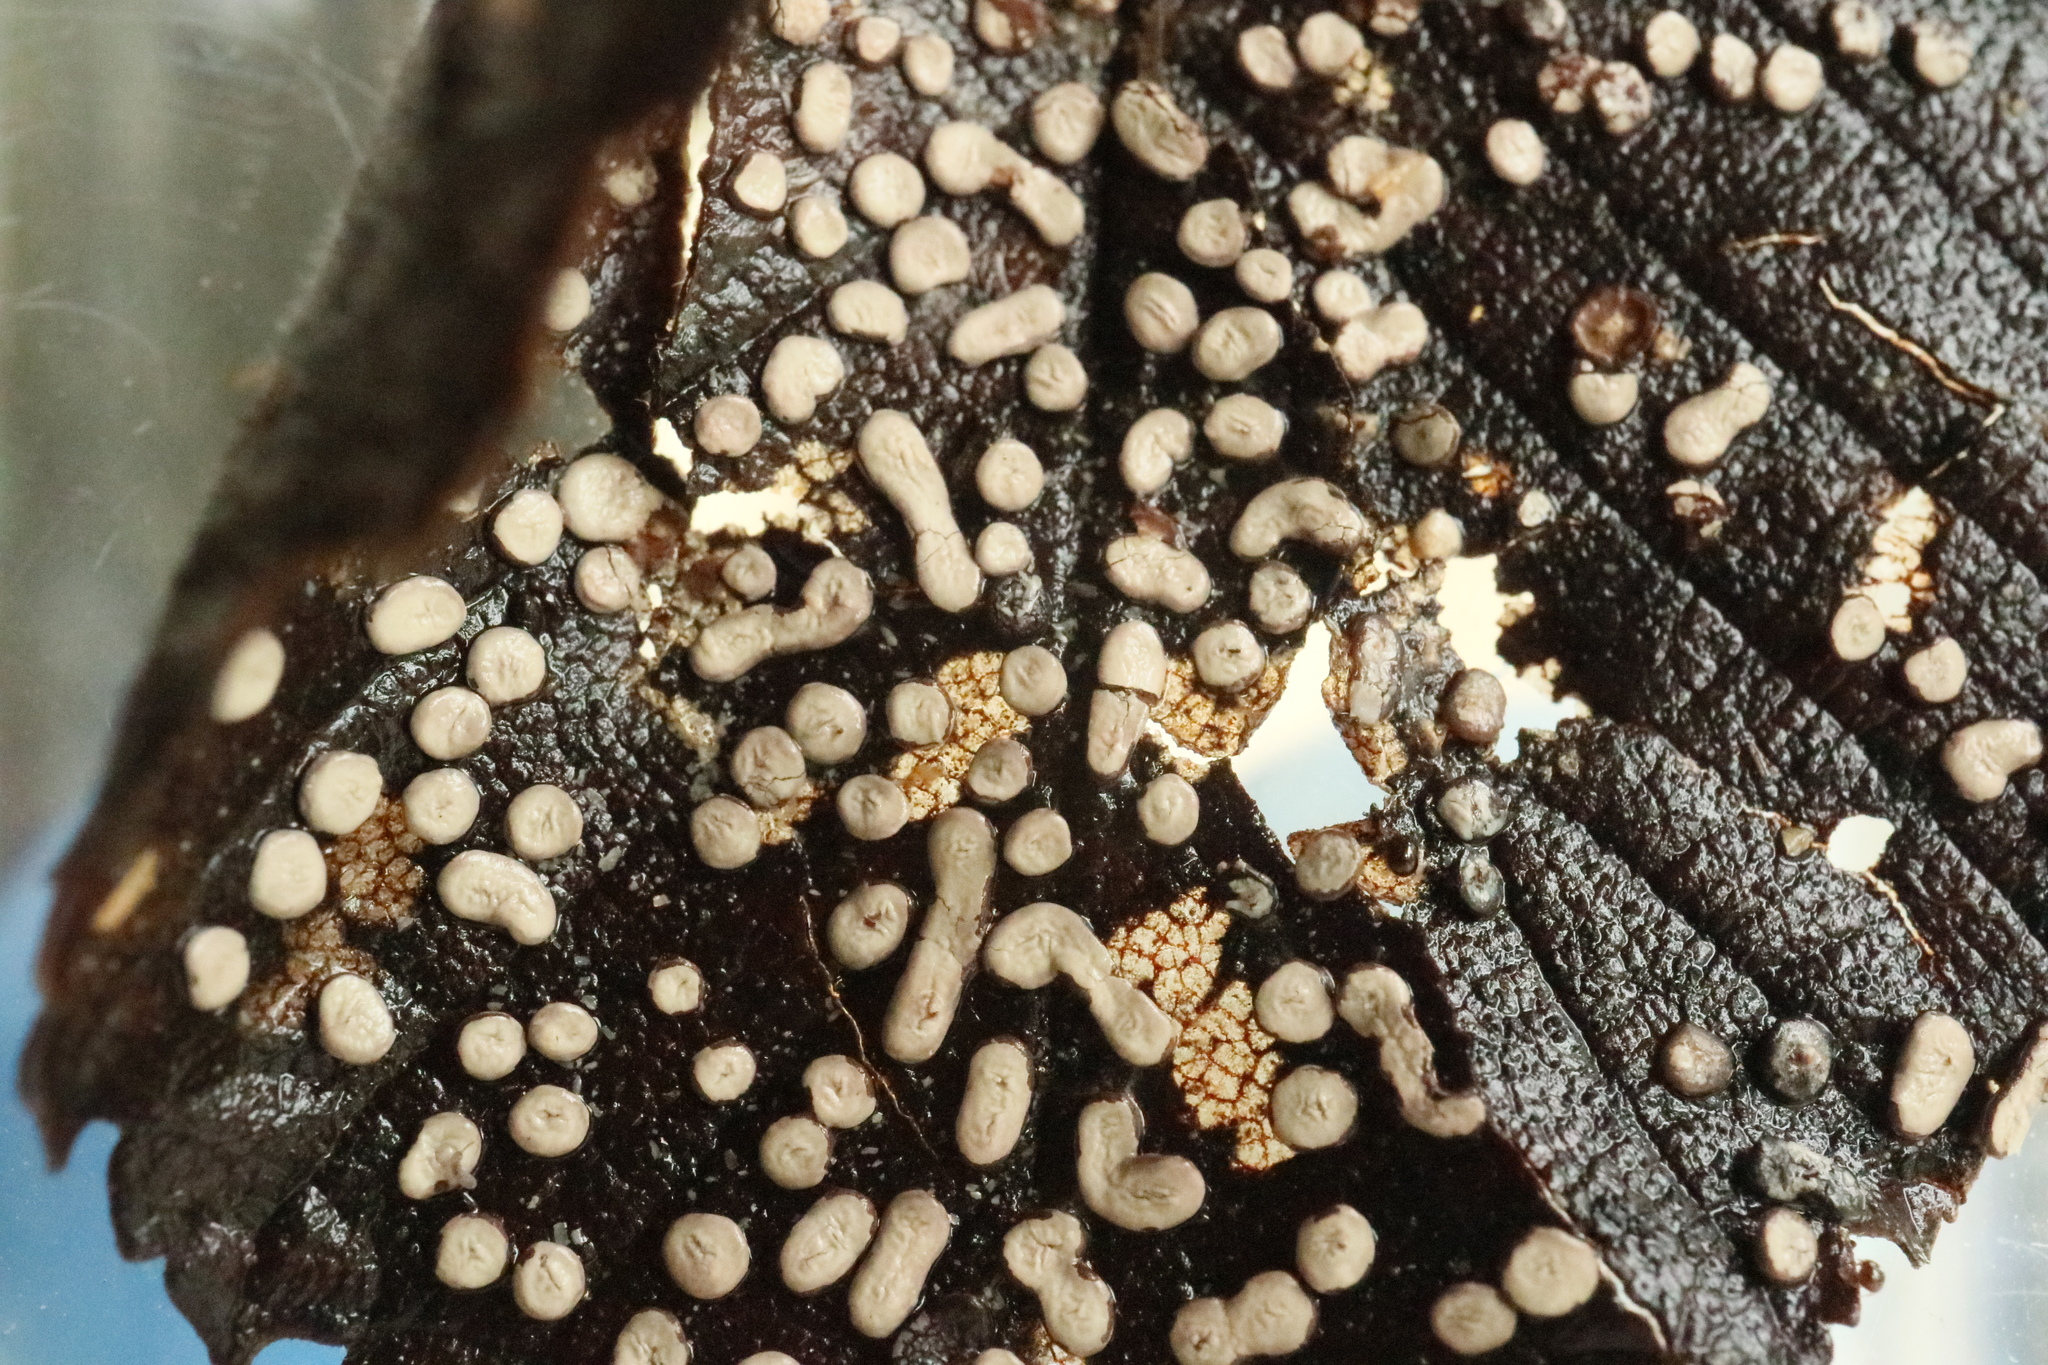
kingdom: Protozoa
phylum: Mycetozoa
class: Myxomycetes
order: Physarales
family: Didymiaceae
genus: Diderma
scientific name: Diderma effusum
